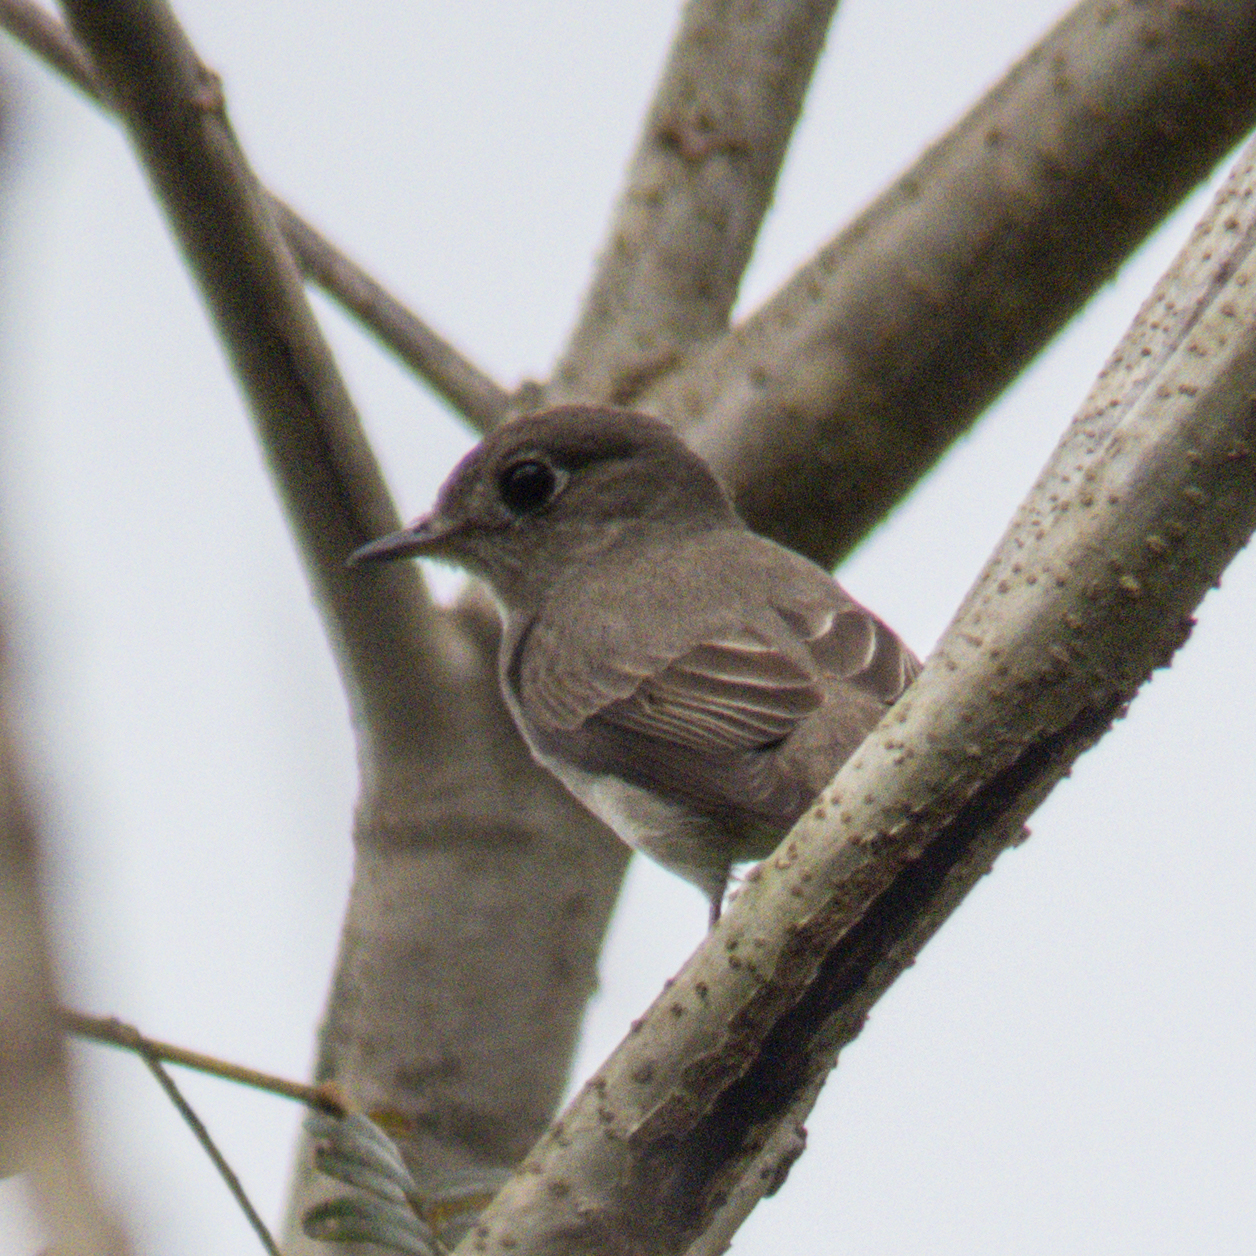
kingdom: Animalia
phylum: Chordata
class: Aves
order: Passeriformes
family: Muscicapidae
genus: Muscicapa
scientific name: Muscicapa latirostris
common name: Asian brown flycatcher
